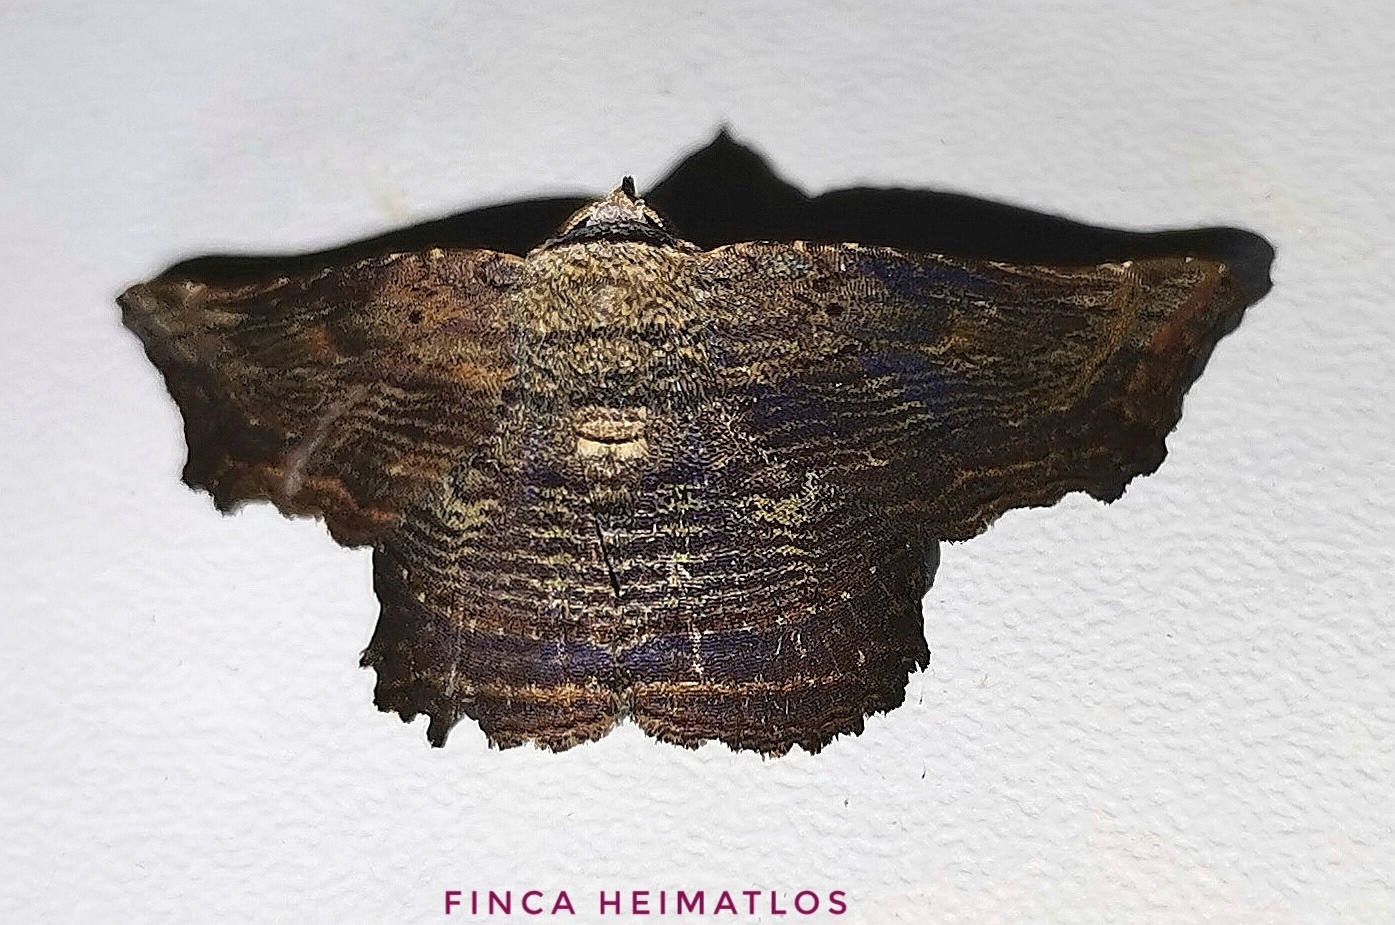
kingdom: Animalia
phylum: Arthropoda
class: Insecta
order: Lepidoptera
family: Erebidae
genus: Tyrissa
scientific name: Tyrissa perstrigata
